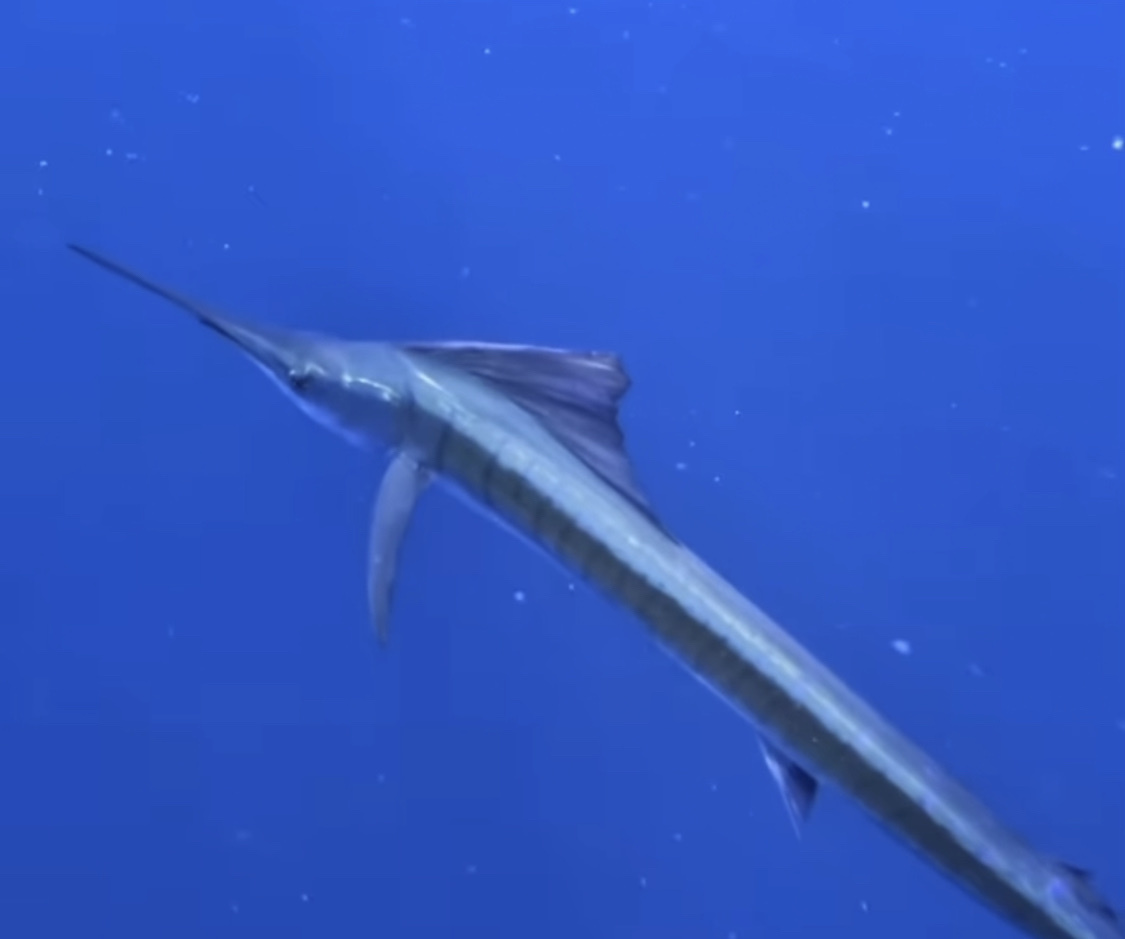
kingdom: Animalia
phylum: Chordata
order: Perciformes
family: Istiophoridae
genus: Istiophorus
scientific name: Istiophorus platypterus
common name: Sailfish
